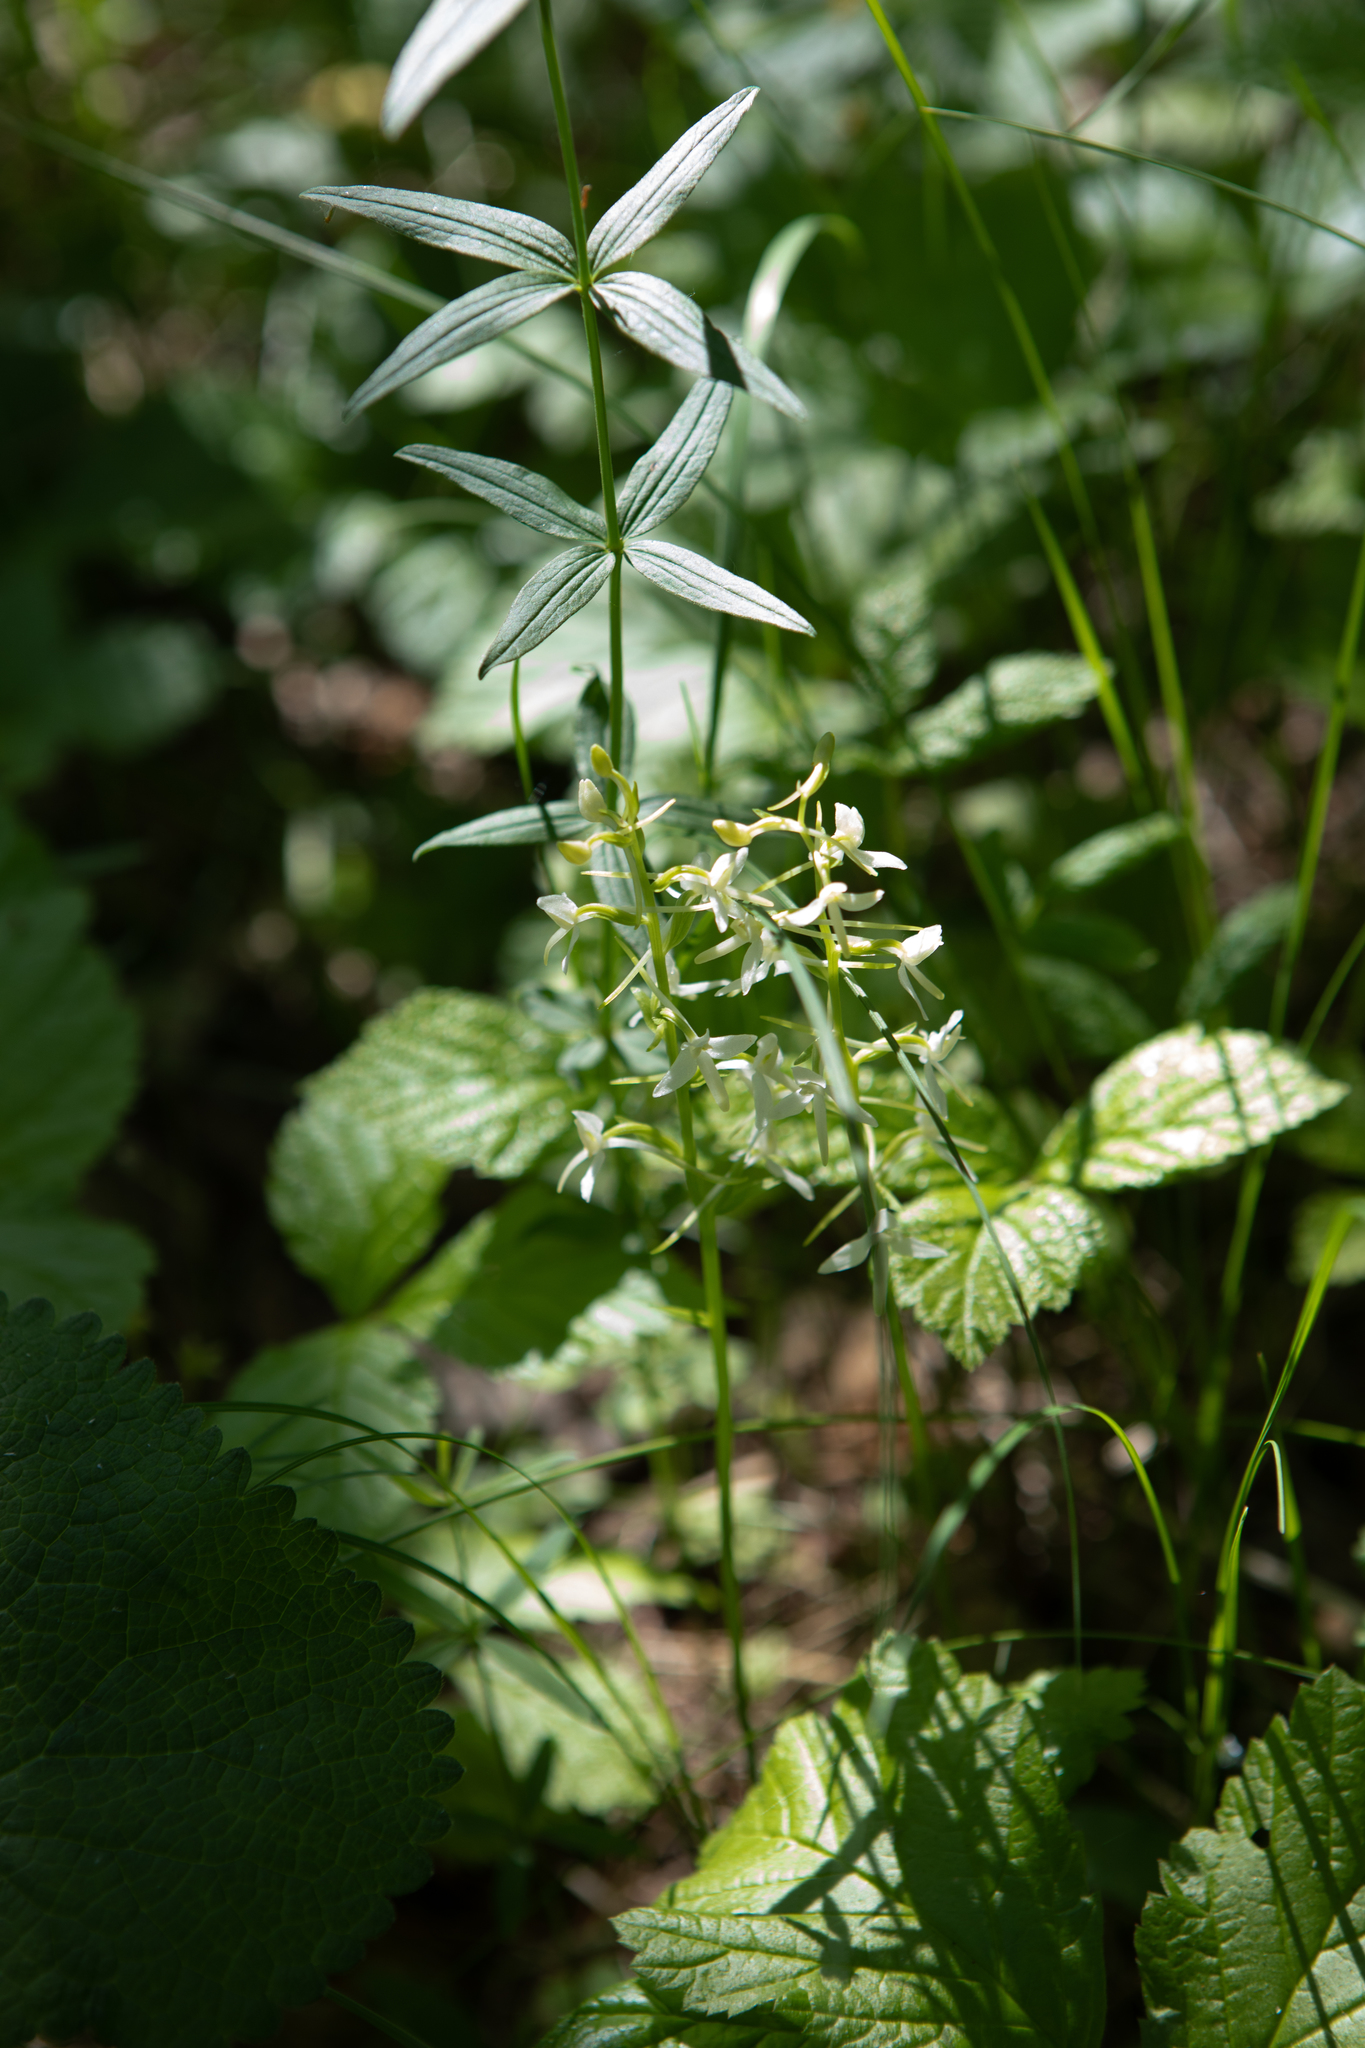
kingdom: Plantae
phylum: Tracheophyta
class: Liliopsida
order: Asparagales
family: Orchidaceae
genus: Platanthera
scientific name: Platanthera bifolia
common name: Lesser butterfly-orchid
